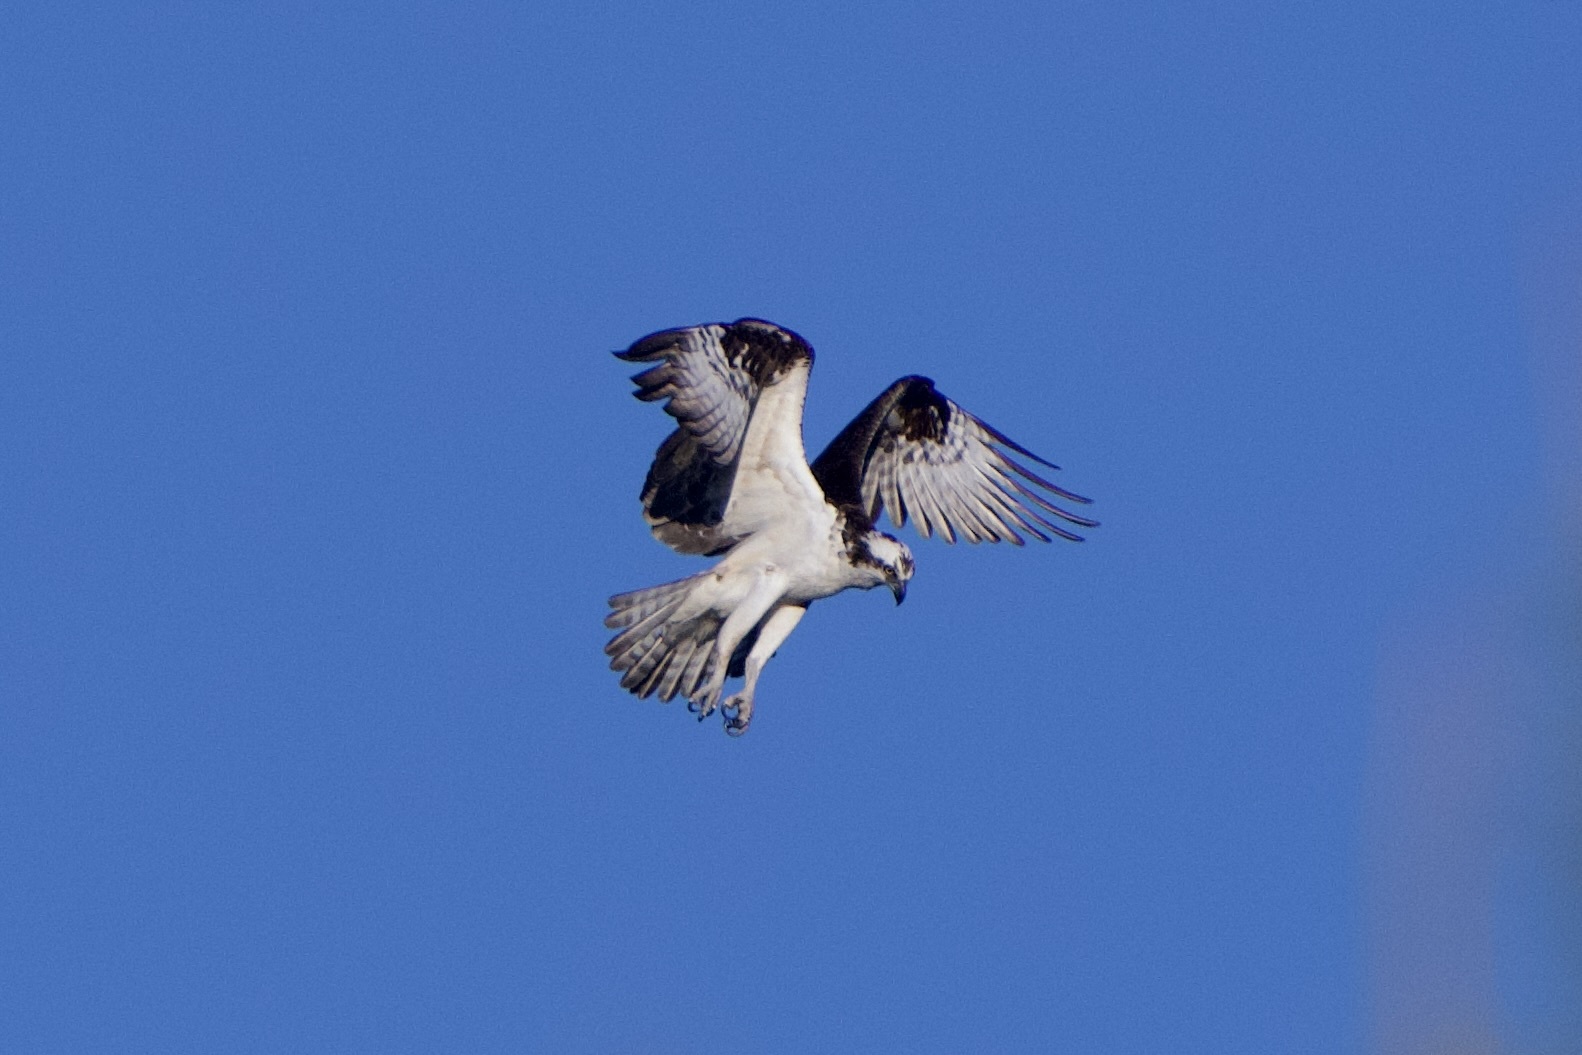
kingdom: Animalia
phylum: Chordata
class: Aves
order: Accipitriformes
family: Pandionidae
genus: Pandion
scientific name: Pandion haliaetus
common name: Osprey
